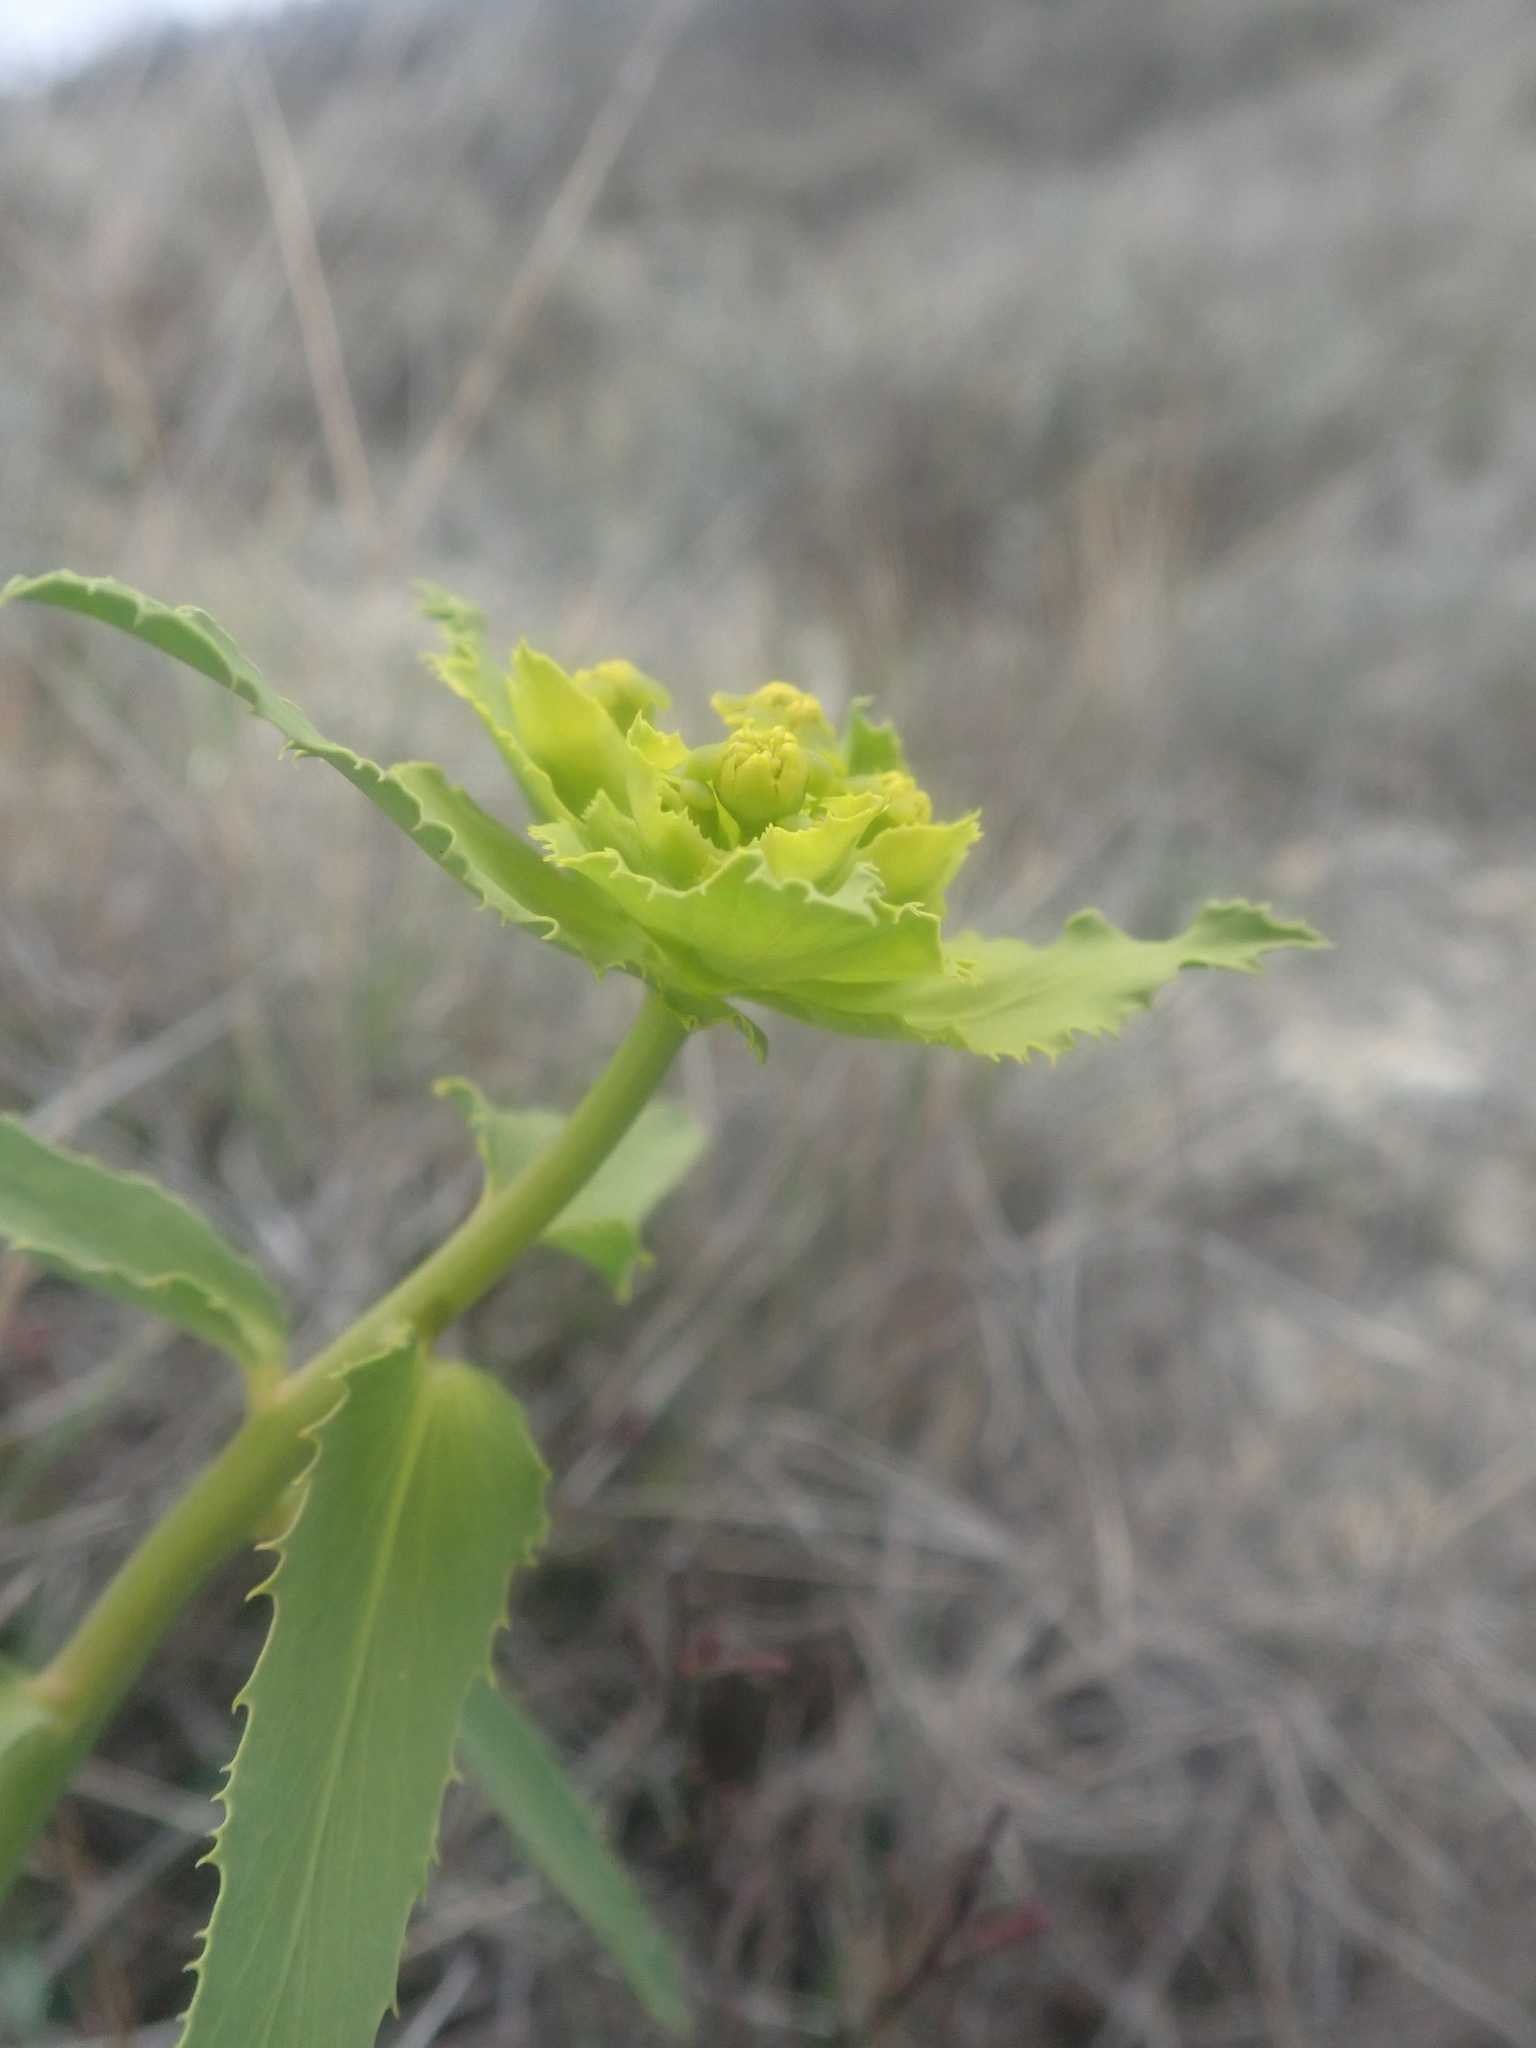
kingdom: Plantae
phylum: Tracheophyta
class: Magnoliopsida
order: Malpighiales
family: Euphorbiaceae
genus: Euphorbia
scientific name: Euphorbia serrata
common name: Serrate spurge
